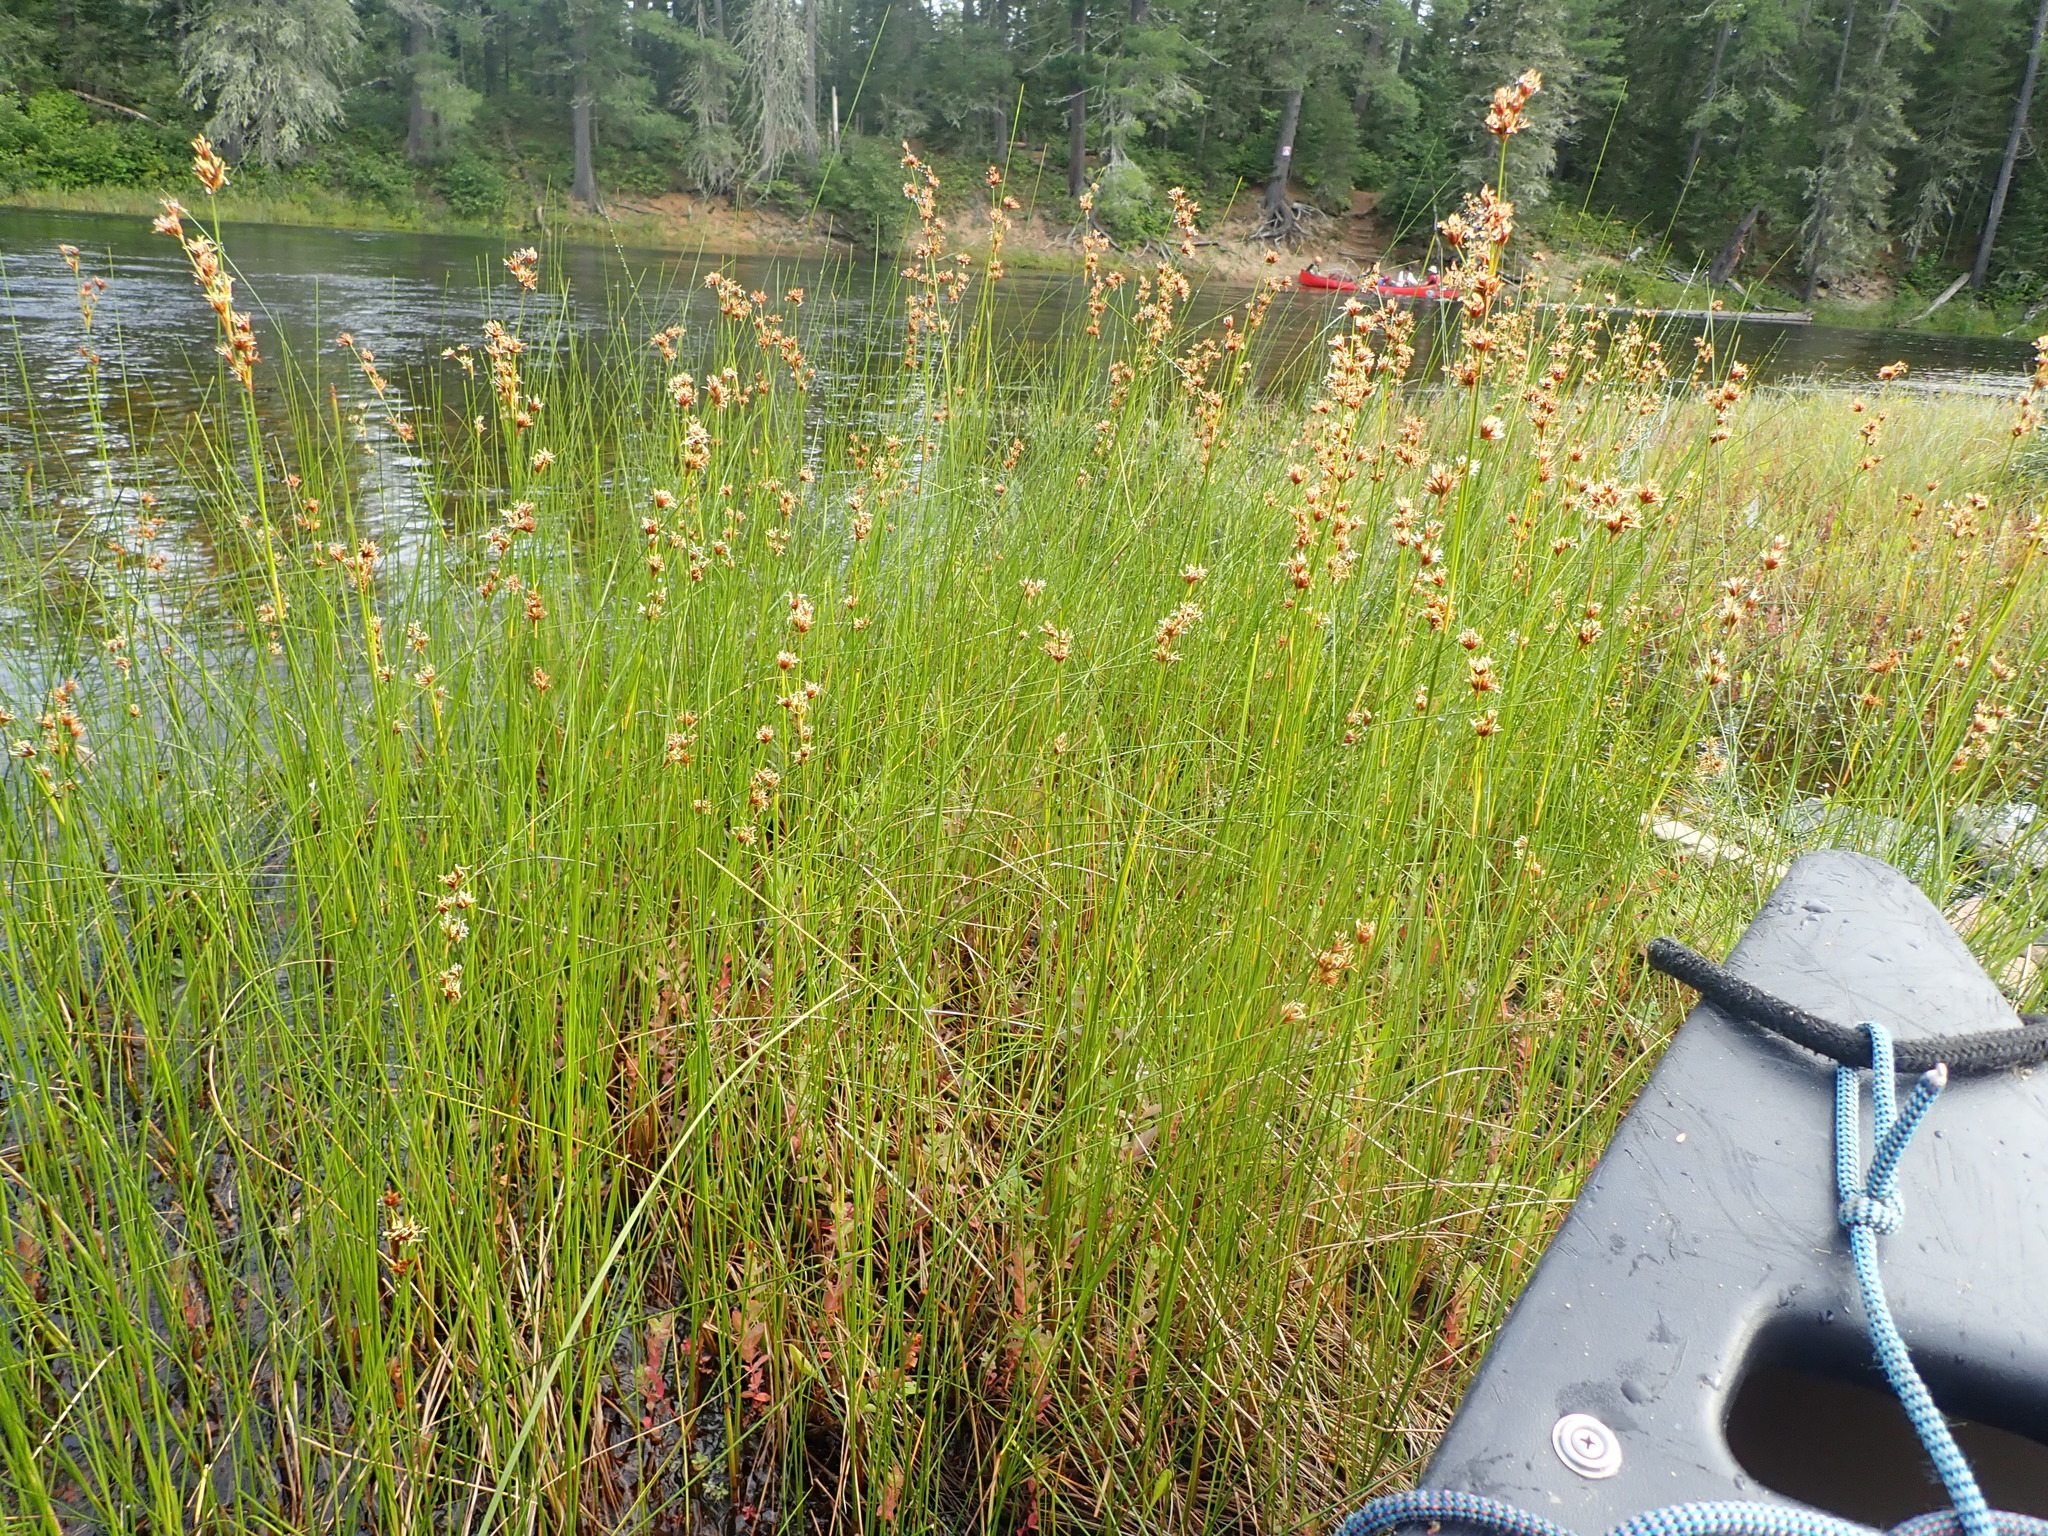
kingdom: Plantae
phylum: Tracheophyta
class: Liliopsida
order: Poales
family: Cyperaceae
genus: Cladium
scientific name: Cladium mariscoides
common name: Smooth sawgrass
